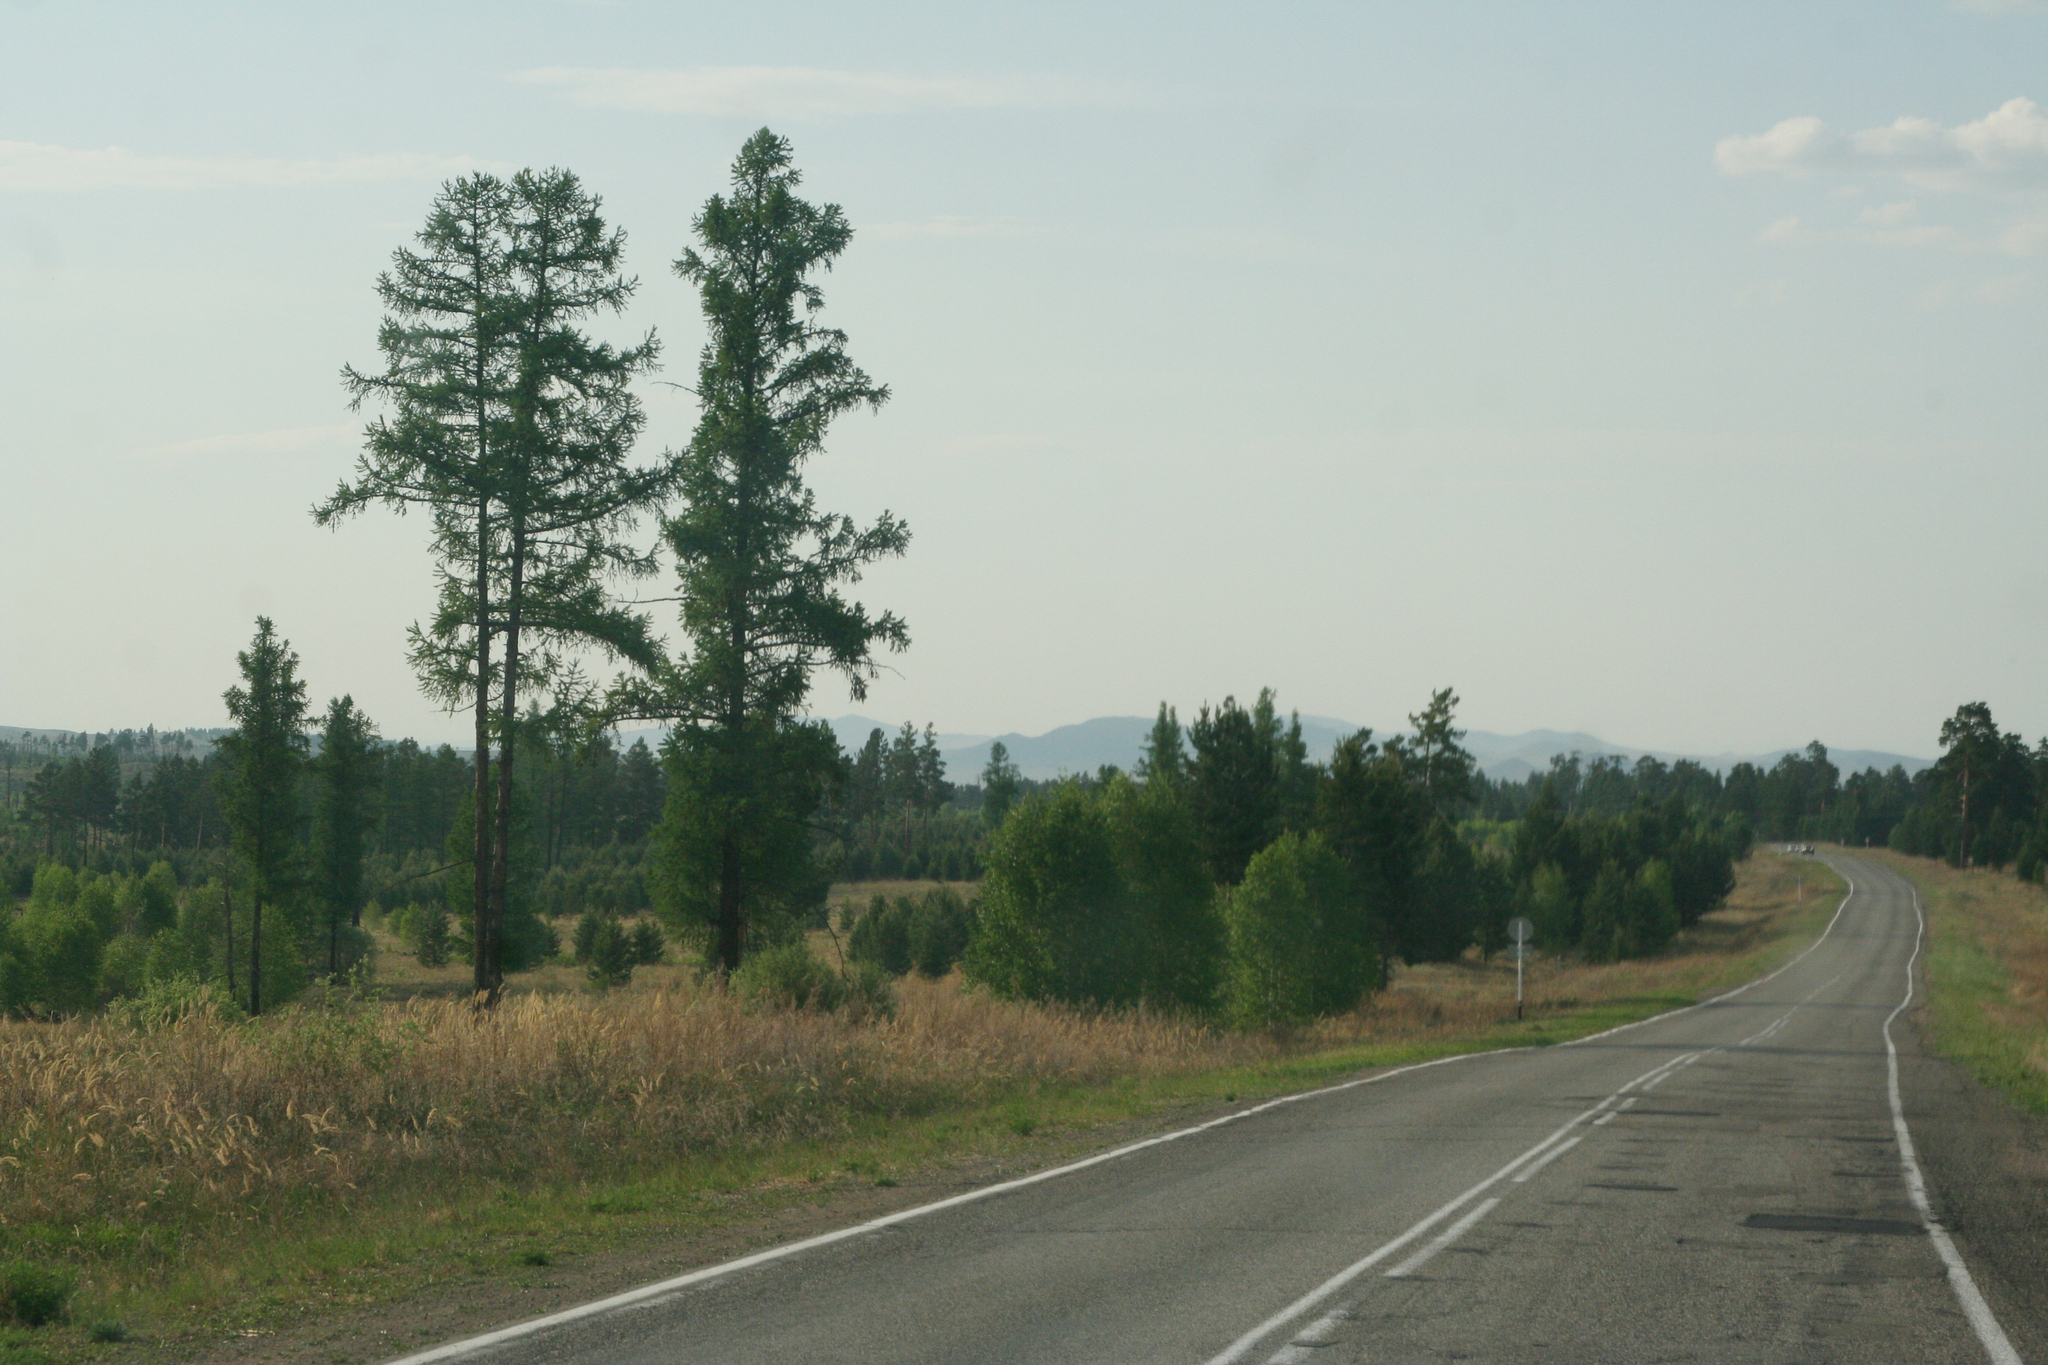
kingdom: Plantae
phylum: Tracheophyta
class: Pinopsida
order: Pinales
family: Pinaceae
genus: Larix
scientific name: Larix sibirica
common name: Siberian larch
